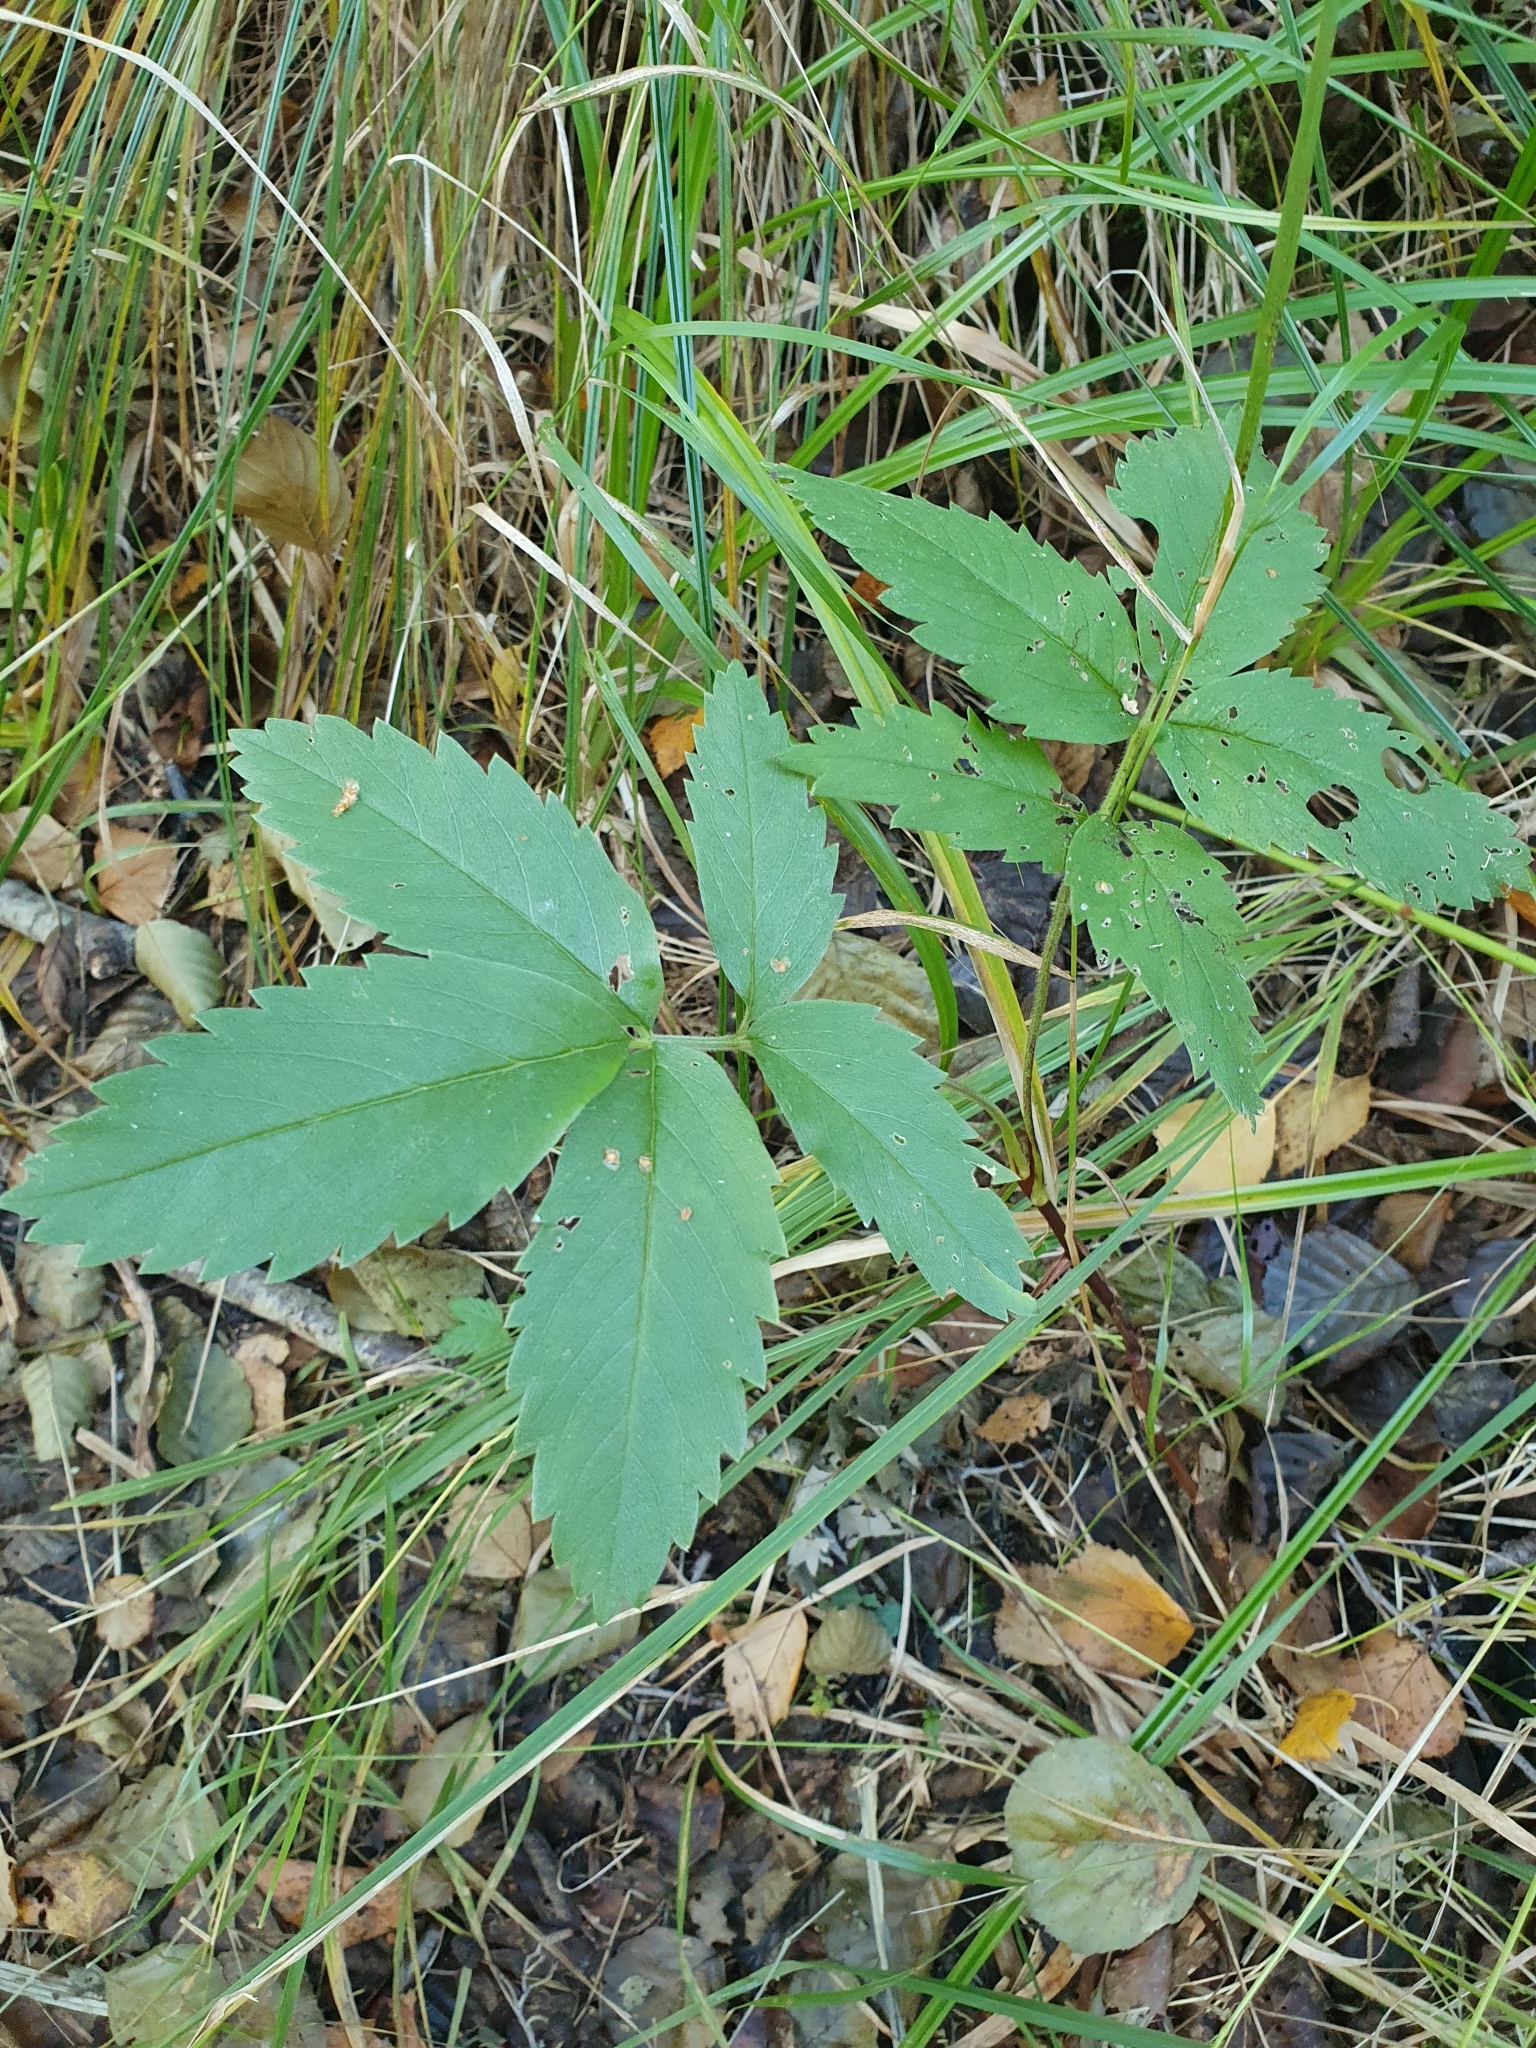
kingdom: Plantae
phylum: Tracheophyta
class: Magnoliopsida
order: Rosales
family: Rosaceae
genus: Comarum
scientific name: Comarum palustre
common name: Marsh cinquefoil
